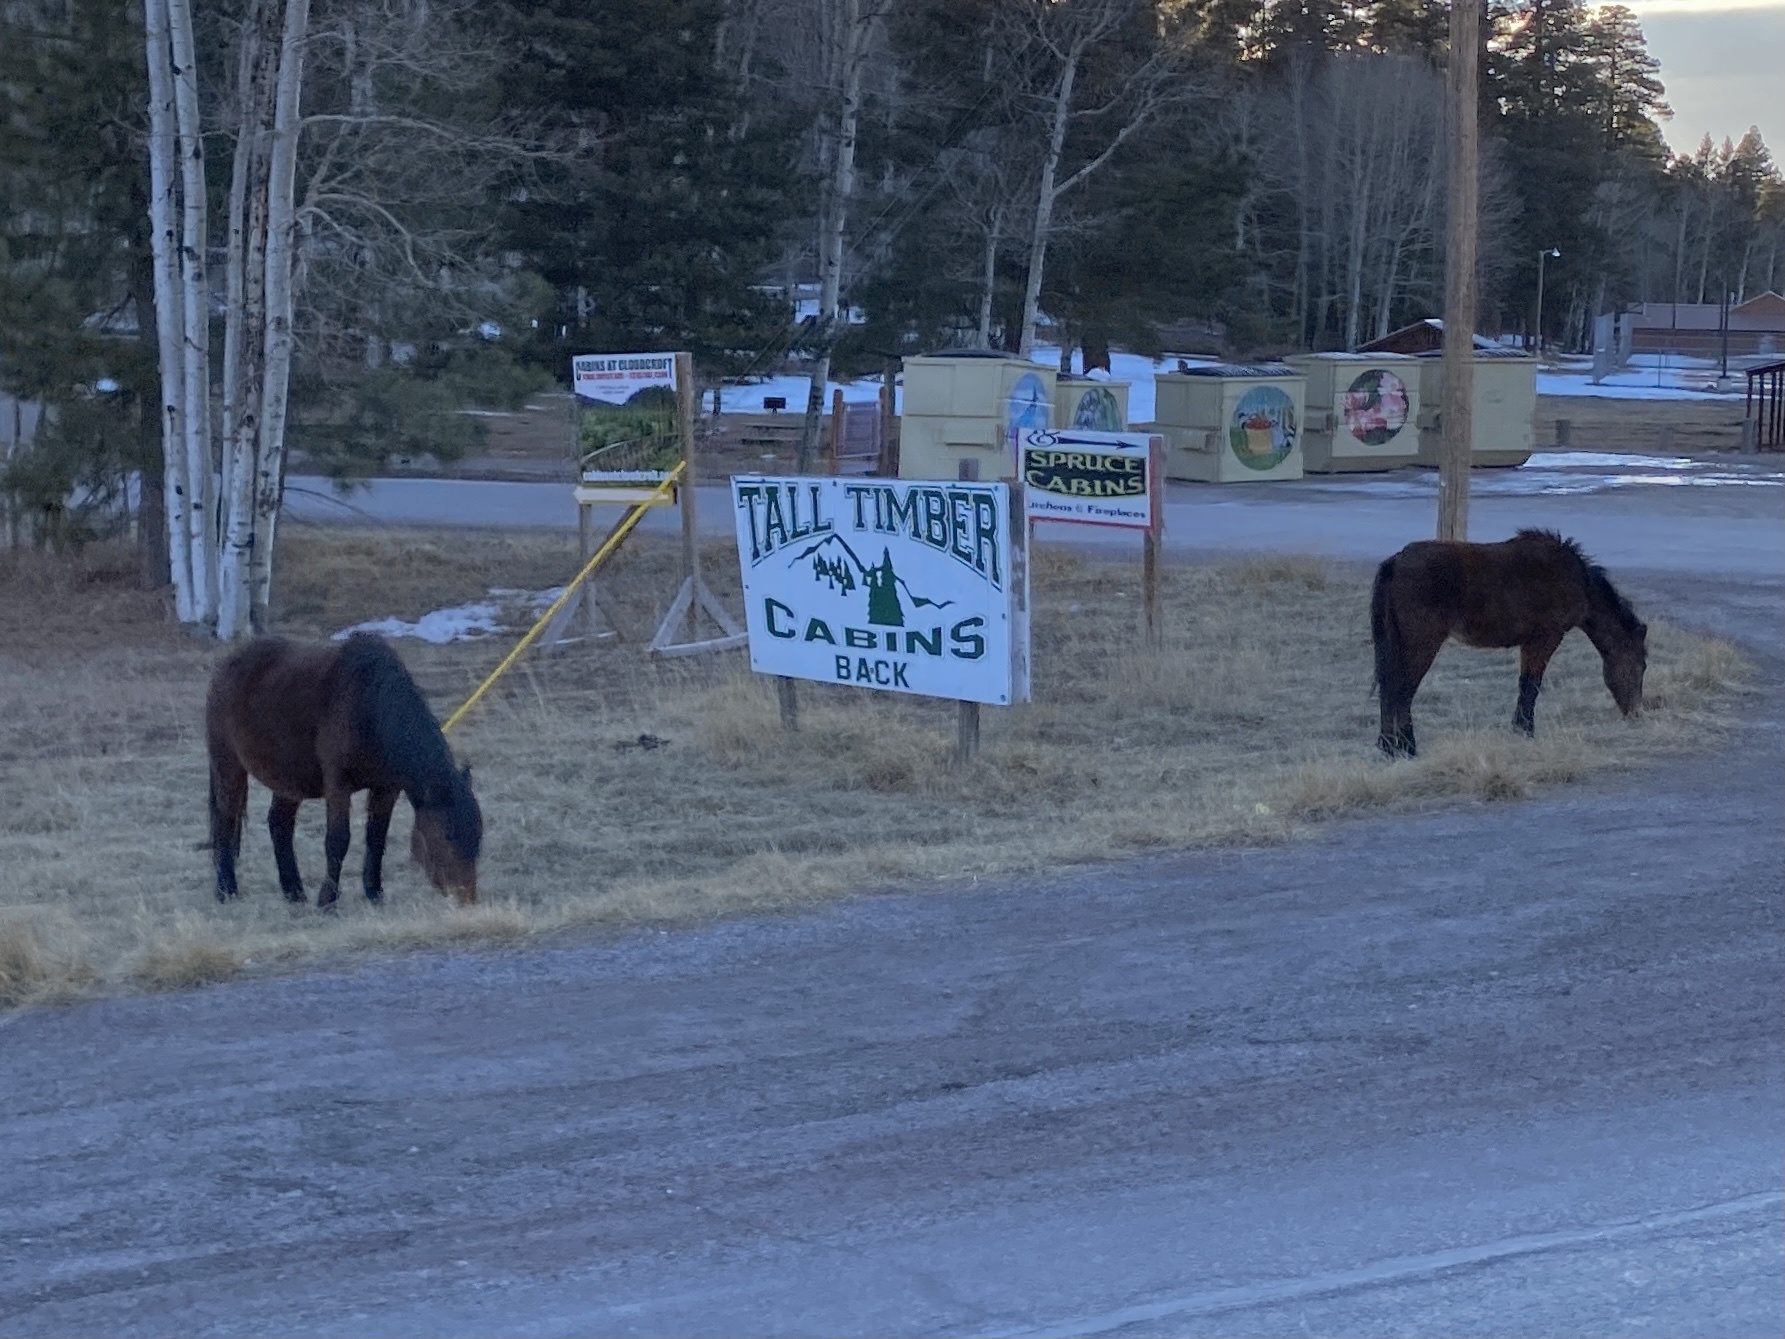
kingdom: Animalia
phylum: Chordata
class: Mammalia
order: Perissodactyla
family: Equidae
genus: Equus
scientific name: Equus caballus
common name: Horse
